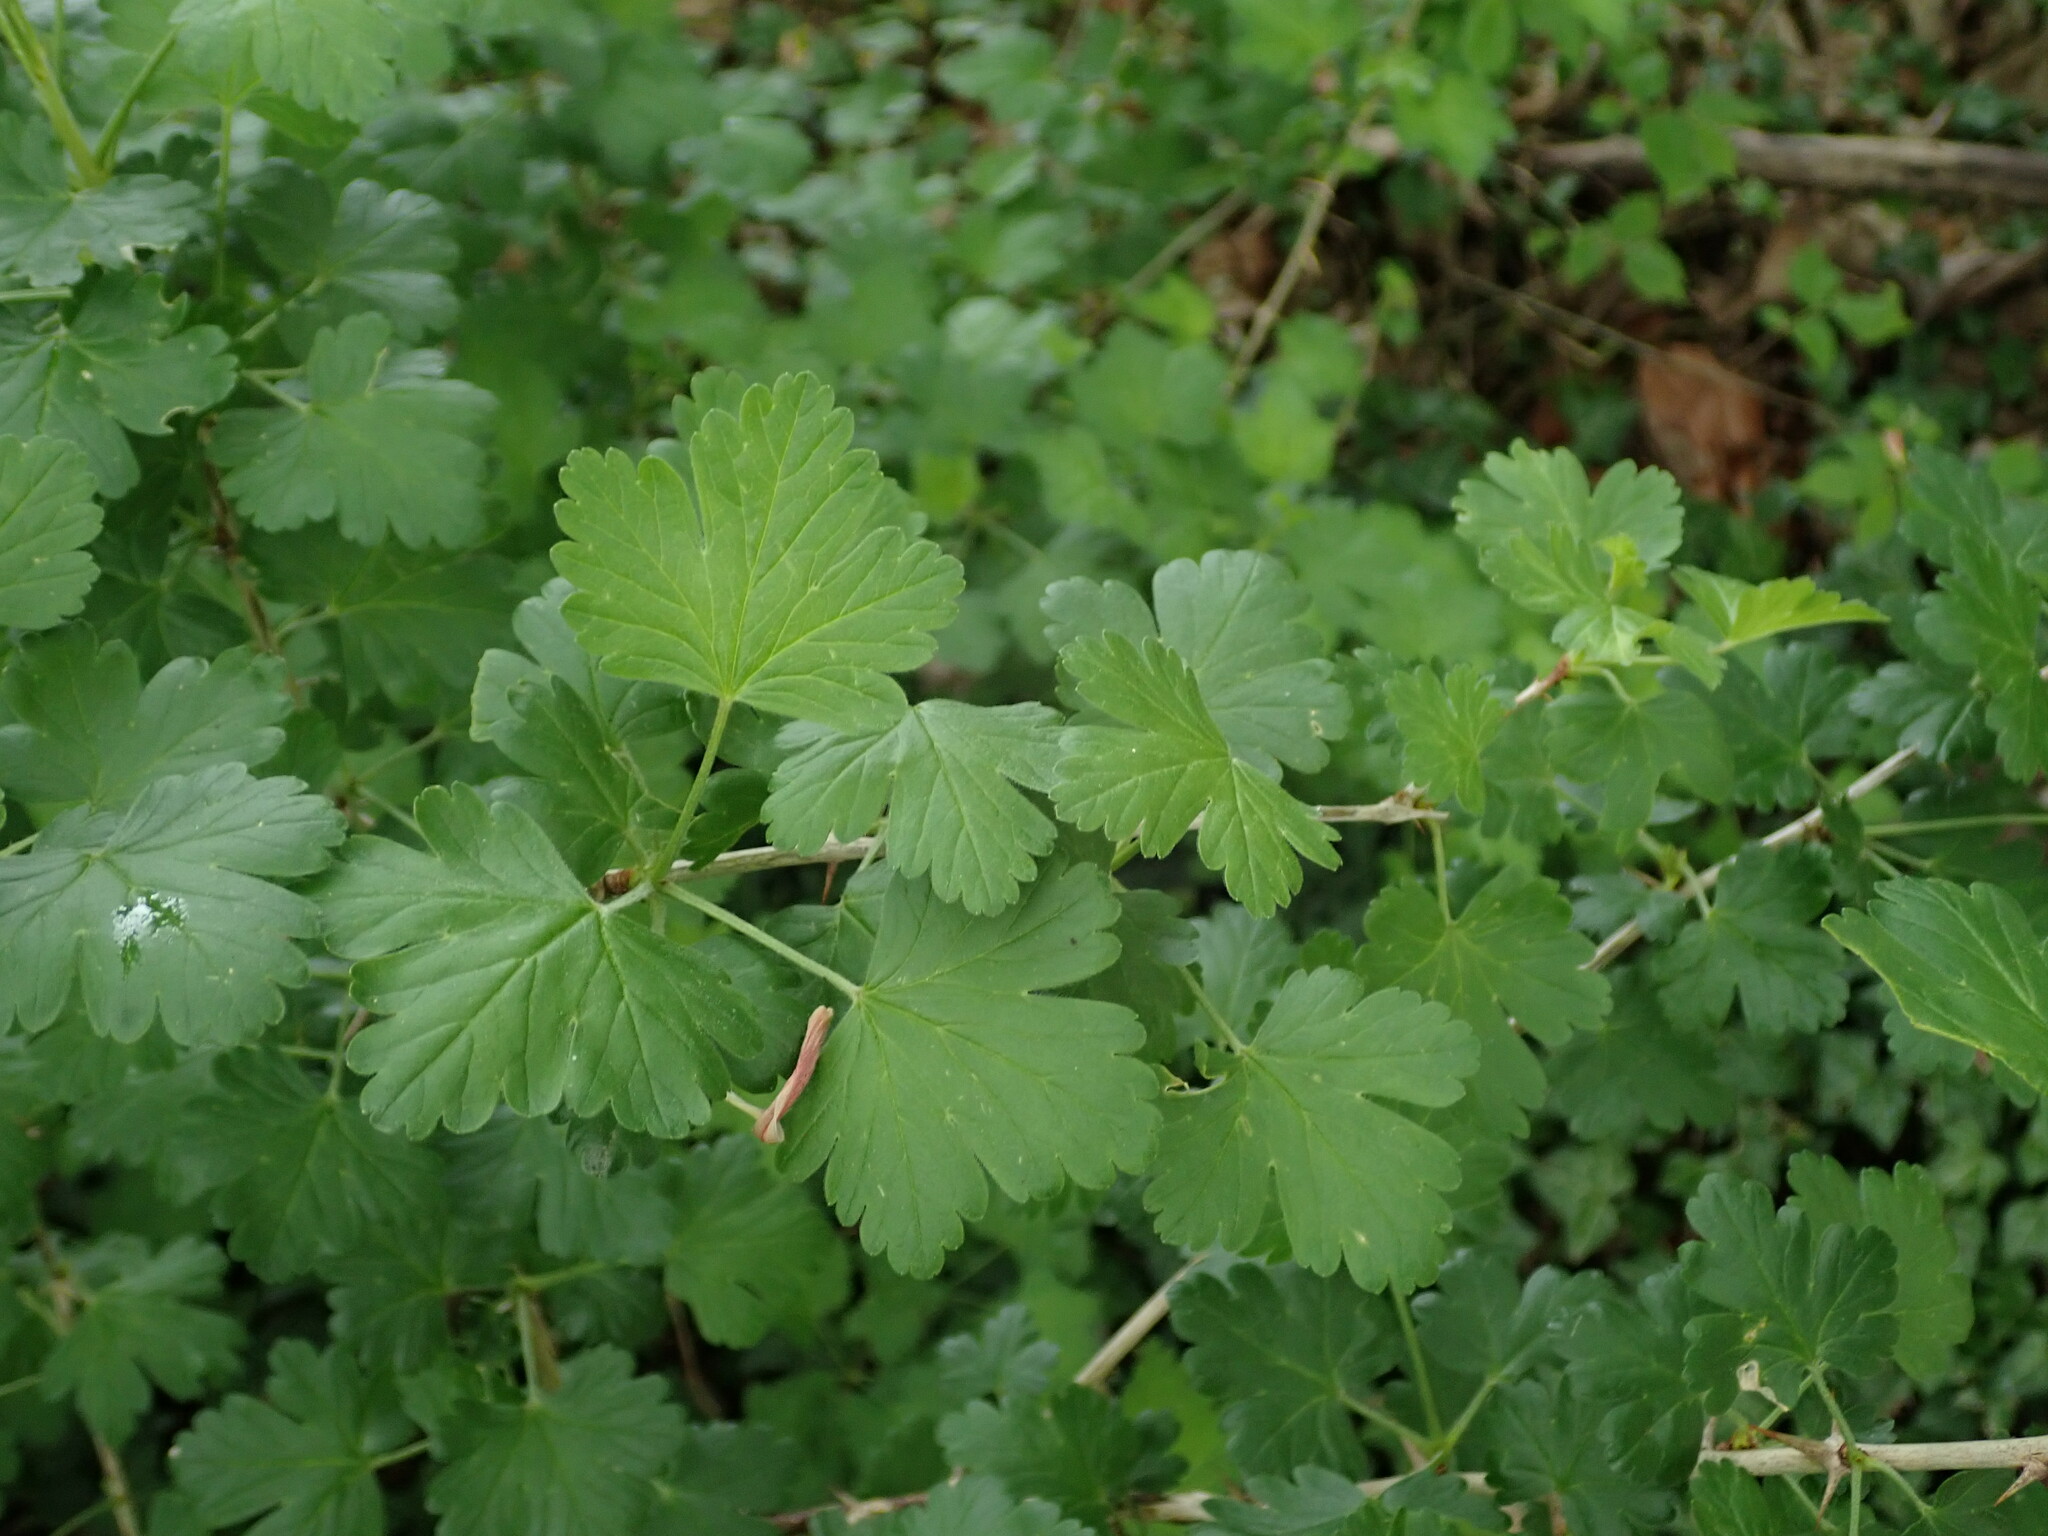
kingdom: Plantae
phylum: Tracheophyta
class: Magnoliopsida
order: Saxifragales
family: Grossulariaceae
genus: Ribes
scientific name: Ribes uva-crispa
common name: Gooseberry
